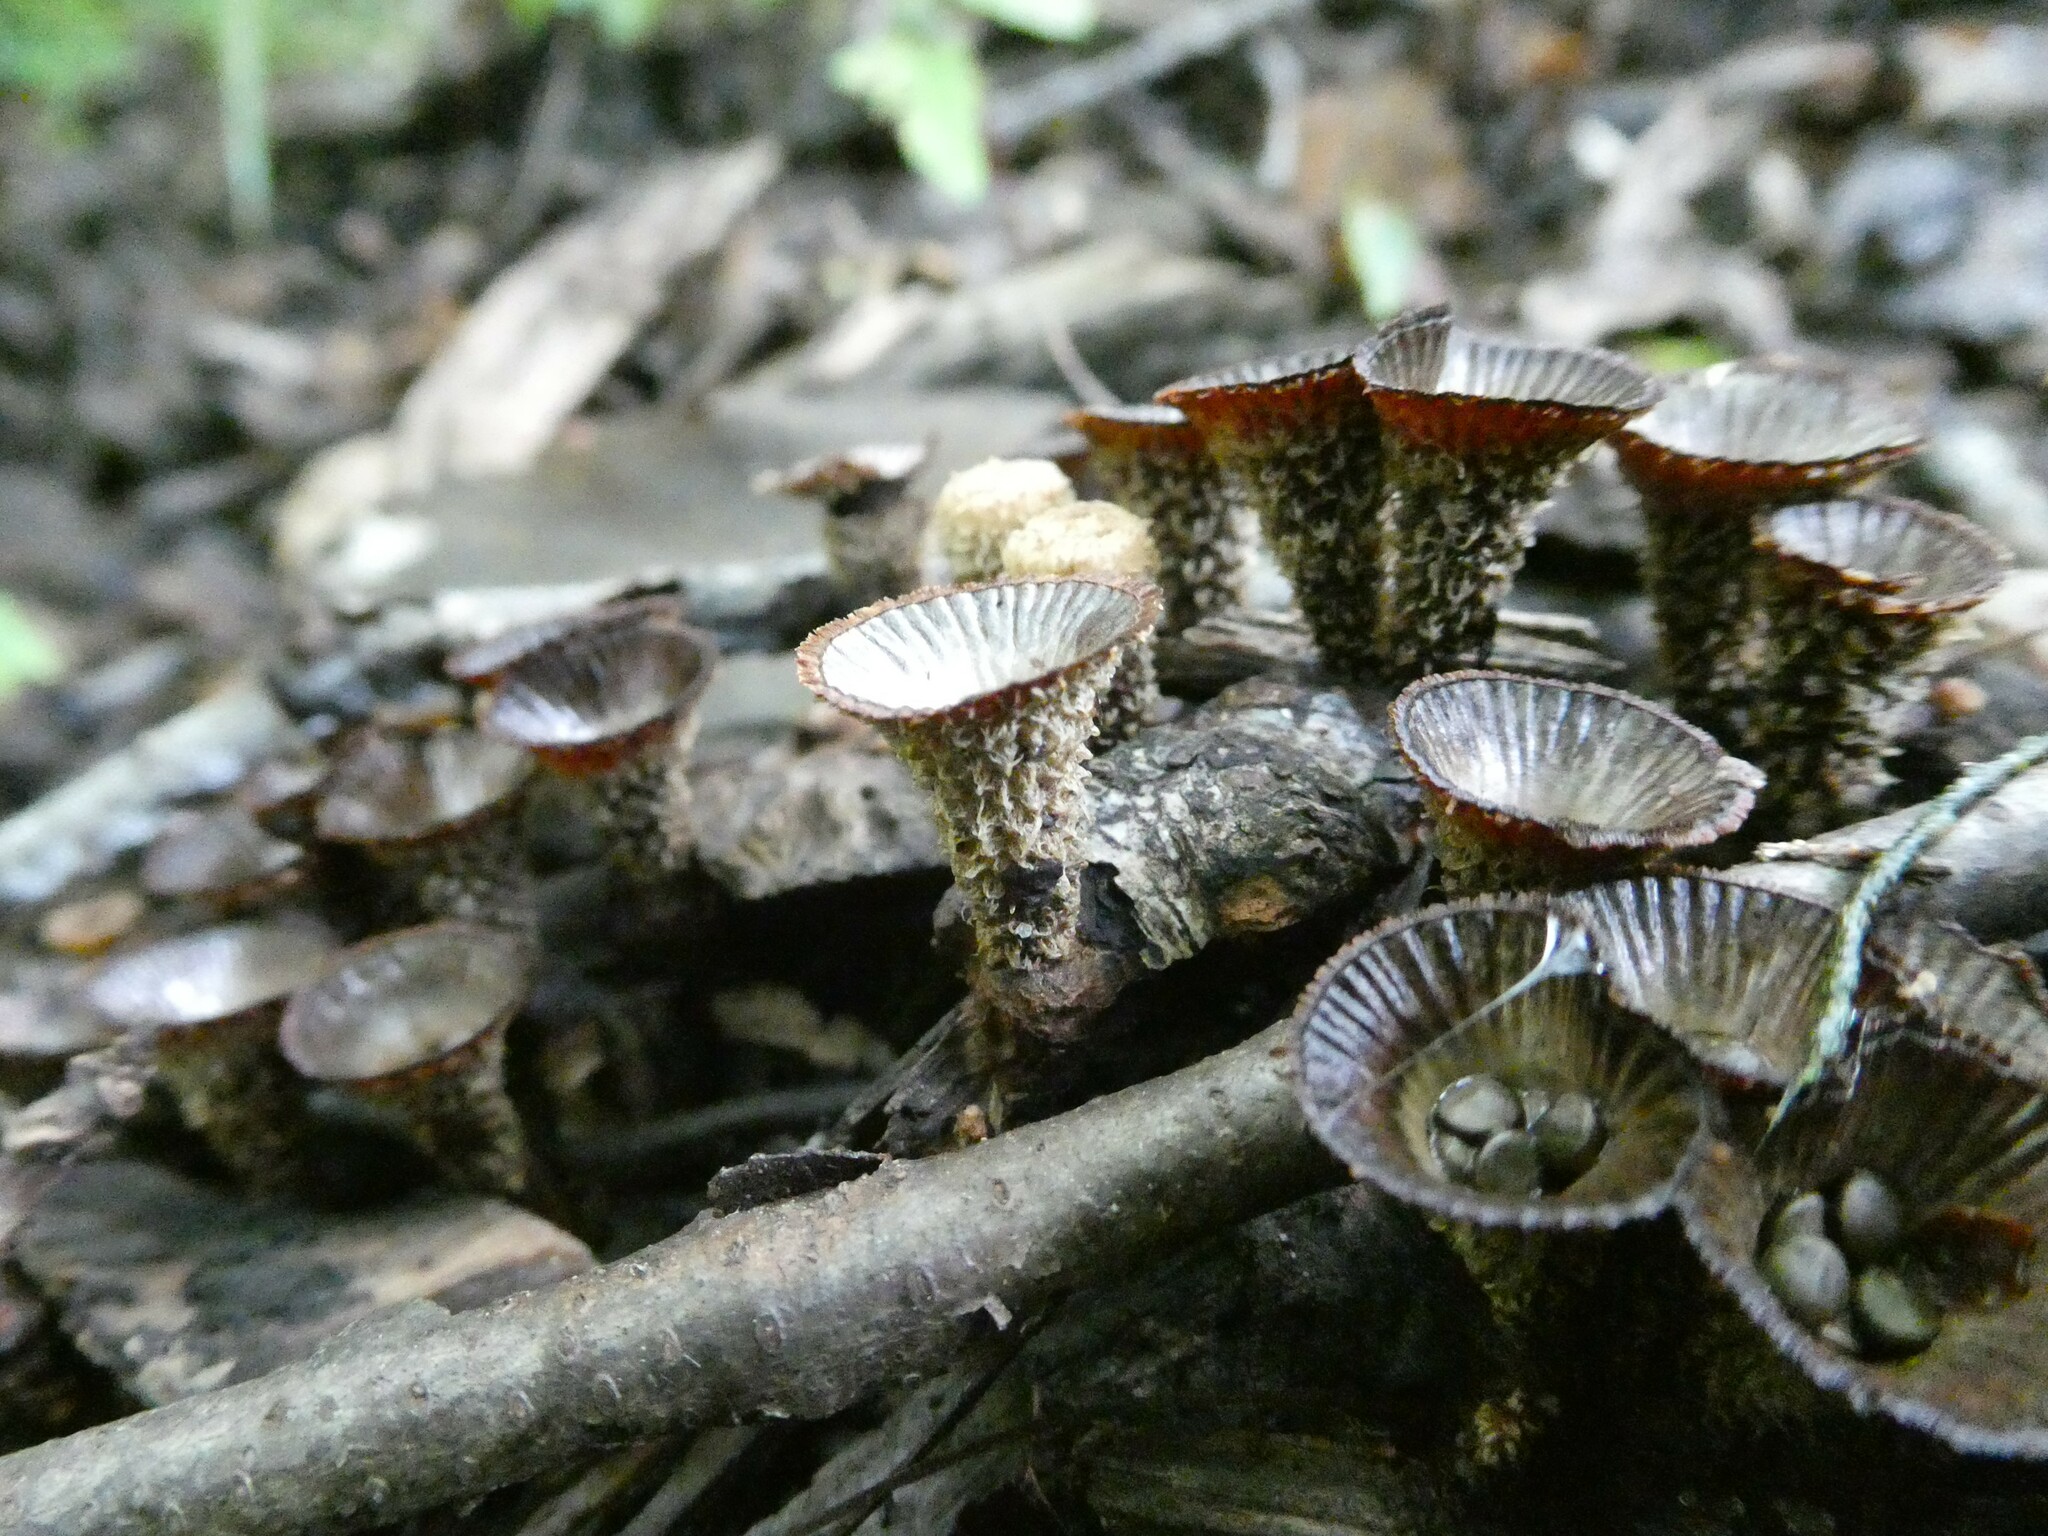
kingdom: Fungi
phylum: Basidiomycota
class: Agaricomycetes
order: Agaricales
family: Agaricaceae
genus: Cyathus
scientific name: Cyathus striatus
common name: Fluted bird's nest
